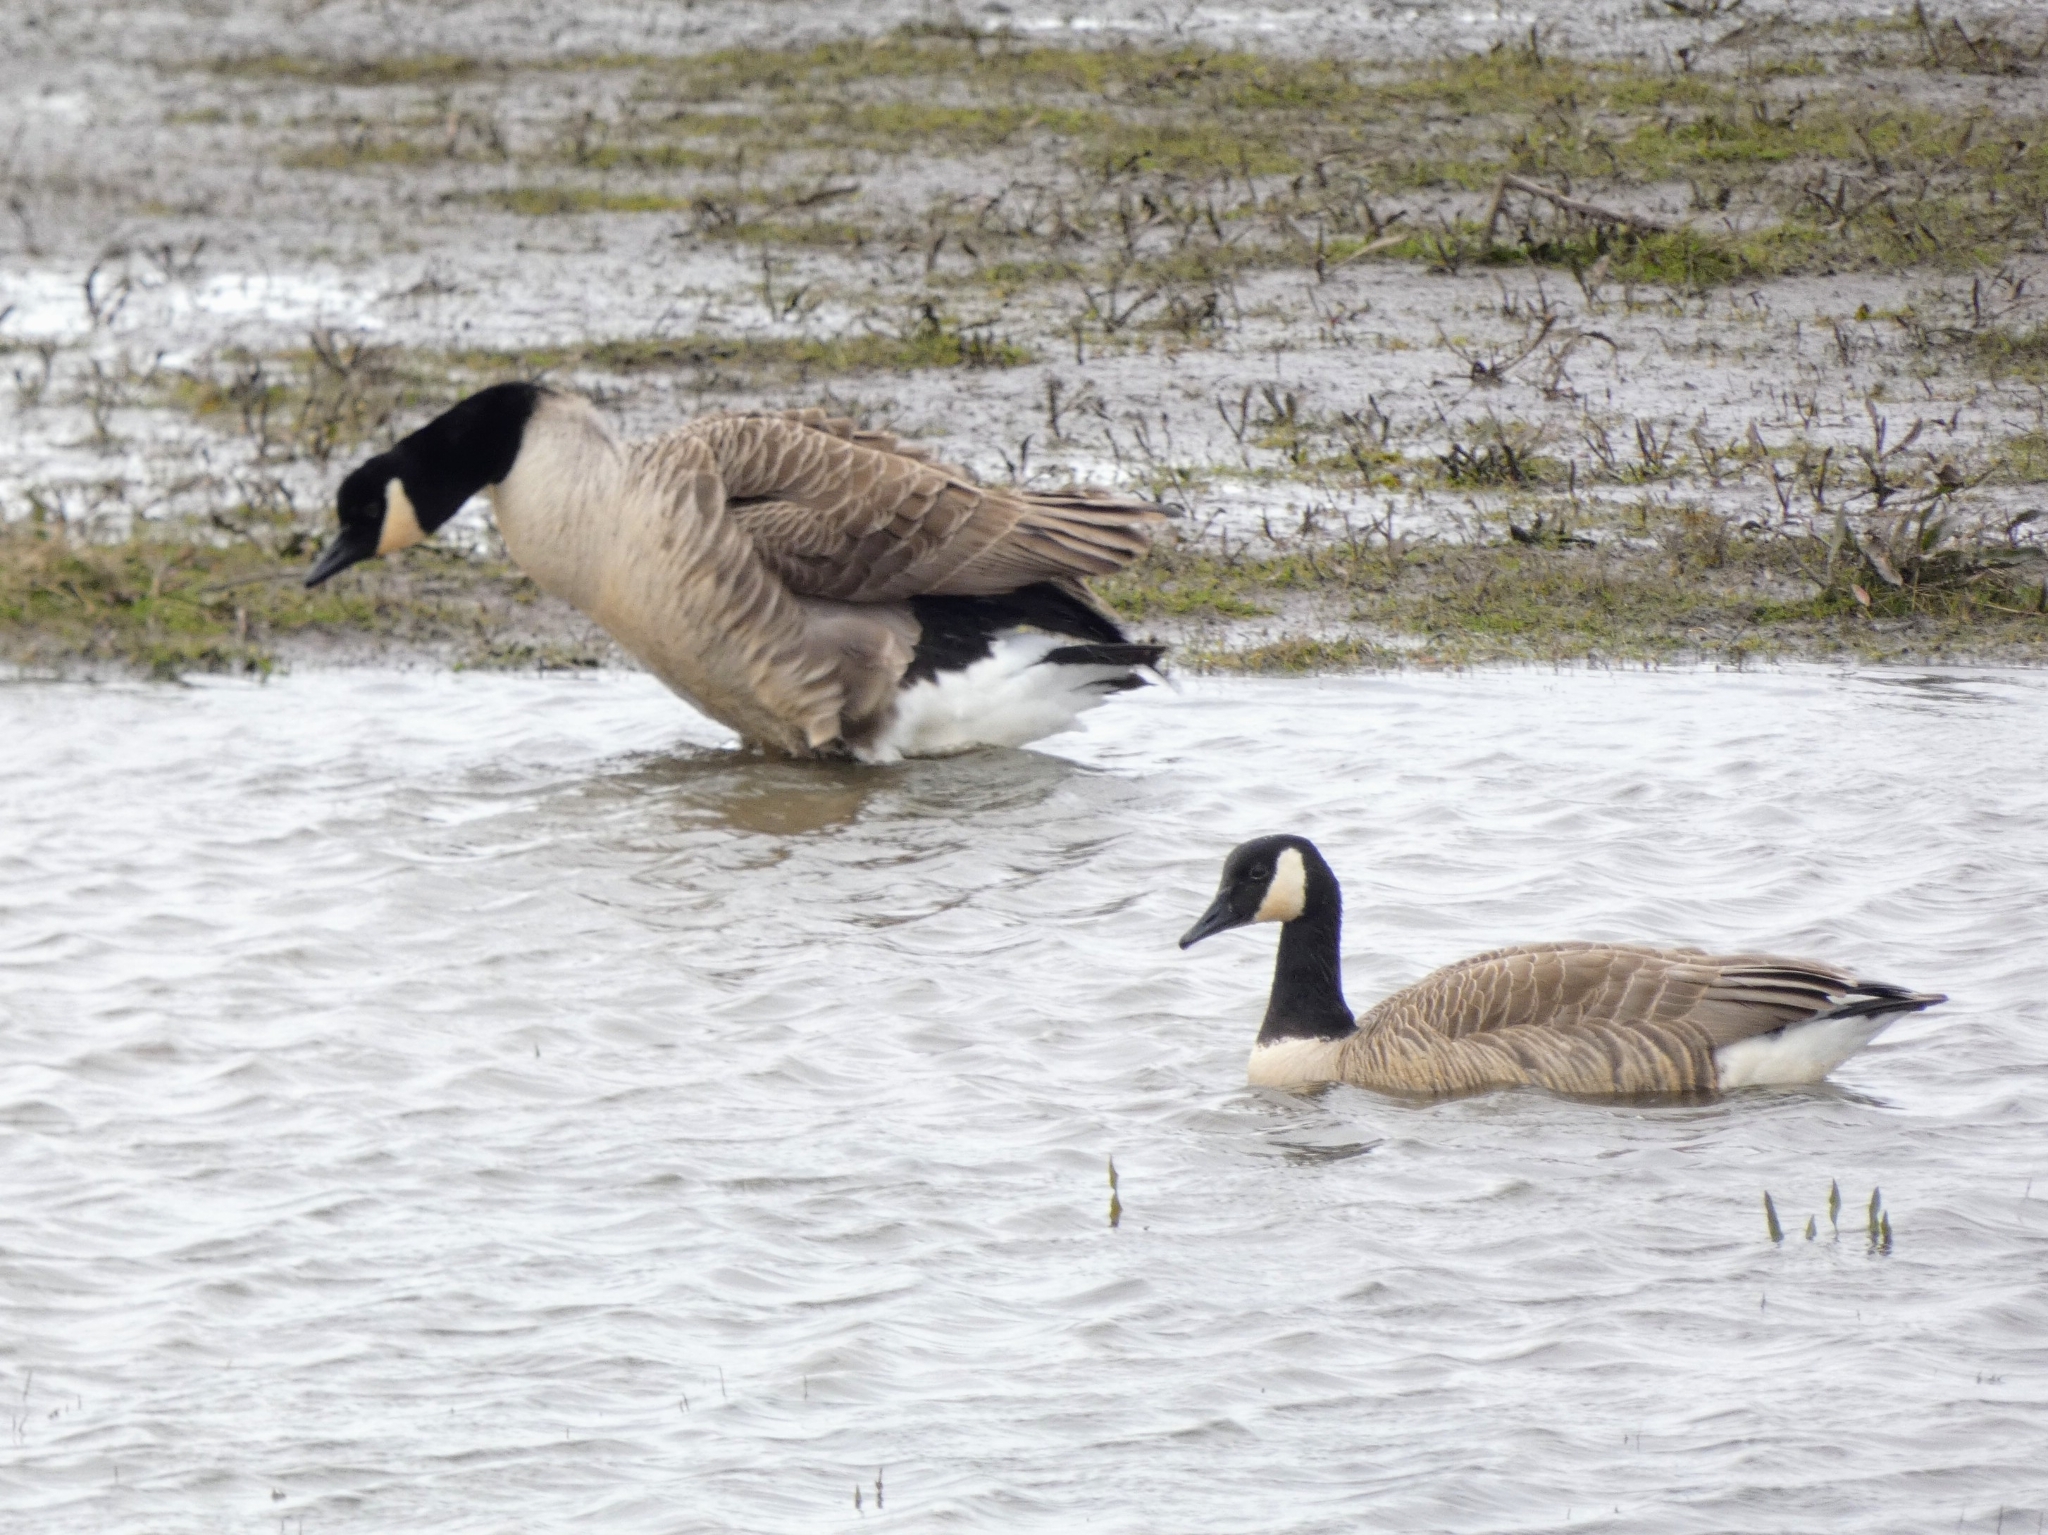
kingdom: Animalia
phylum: Chordata
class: Aves
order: Anseriformes
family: Anatidae
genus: Branta
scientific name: Branta canadensis
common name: Canada goose
